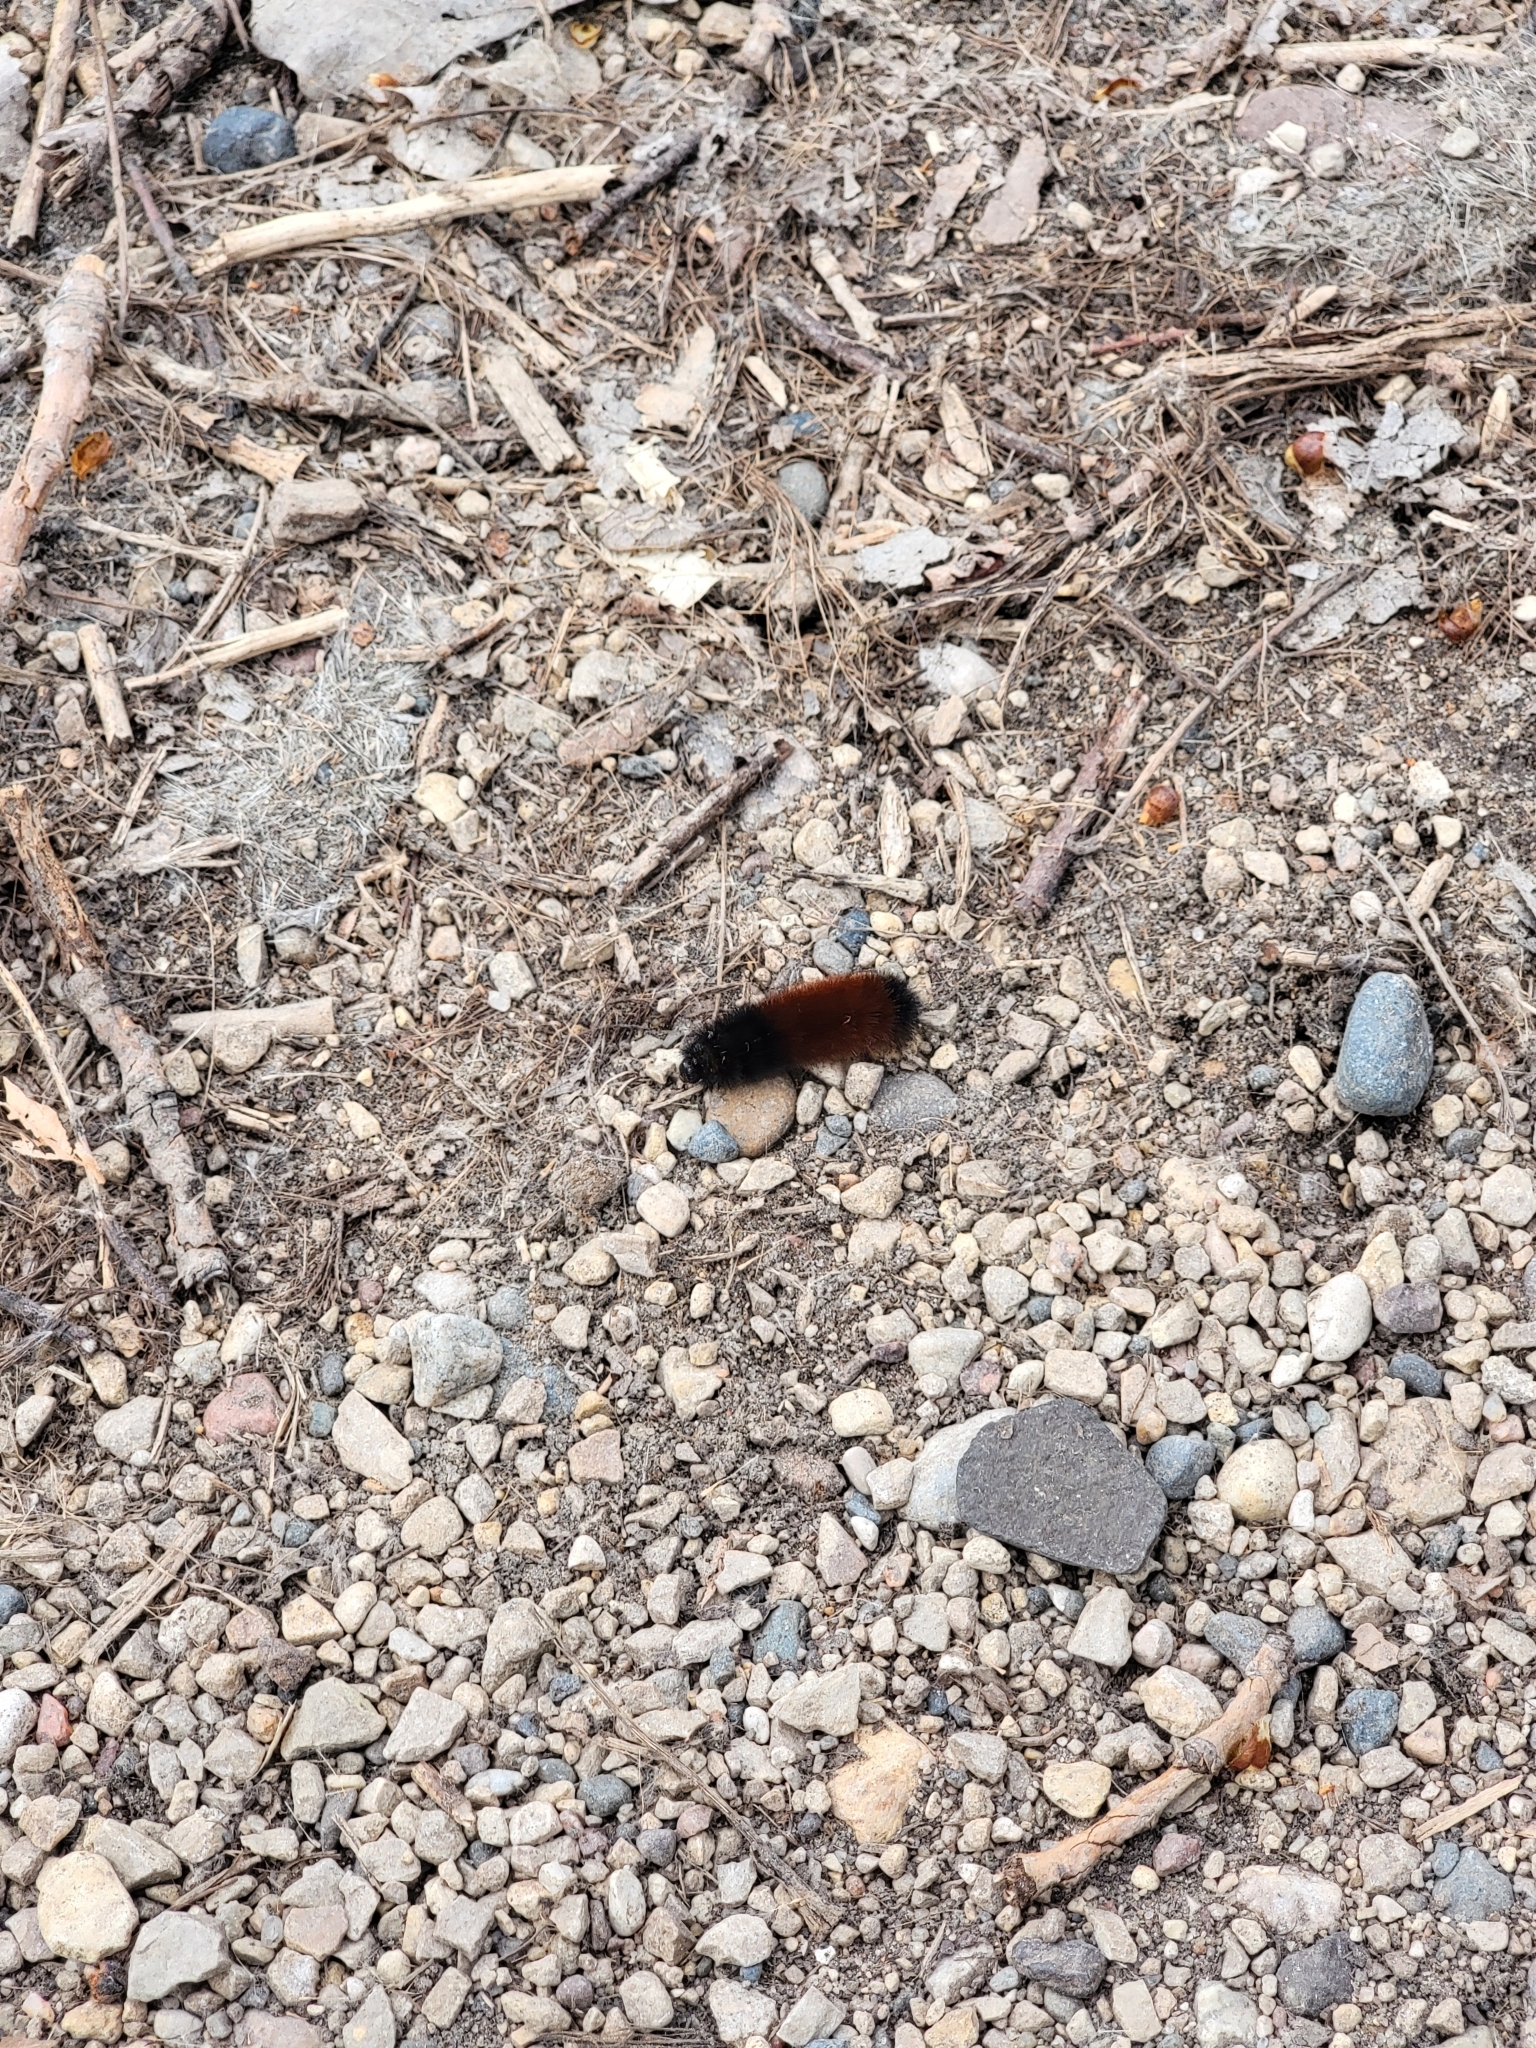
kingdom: Animalia
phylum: Arthropoda
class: Insecta
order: Lepidoptera
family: Erebidae
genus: Pyrrharctia
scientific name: Pyrrharctia isabella
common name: Isabella tiger moth
